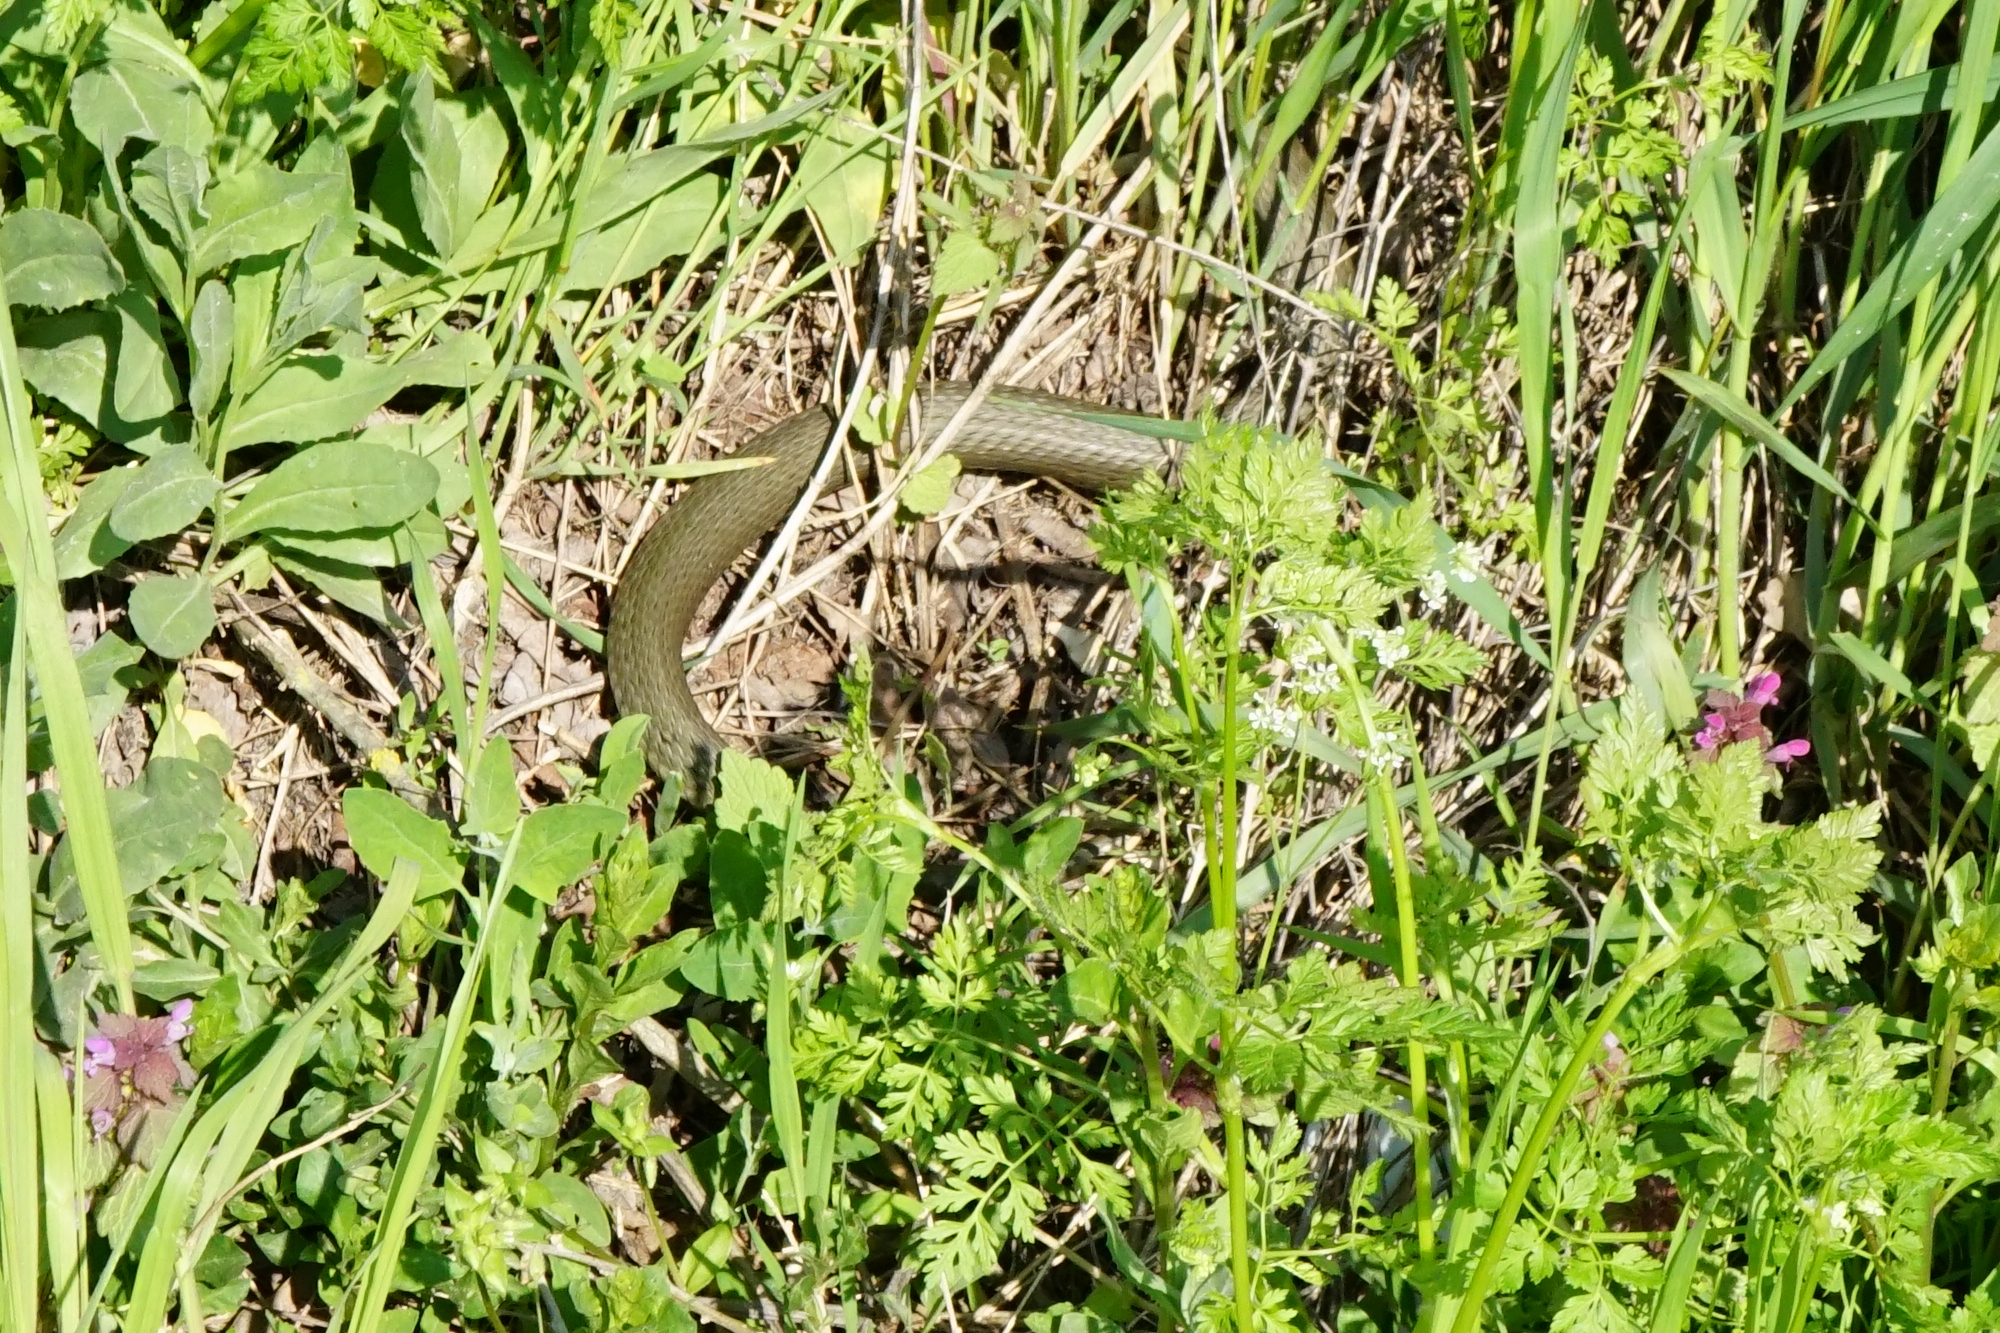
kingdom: Animalia
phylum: Chordata
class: Squamata
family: Colubridae
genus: Natrix
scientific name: Natrix natrix
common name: Grass snake
